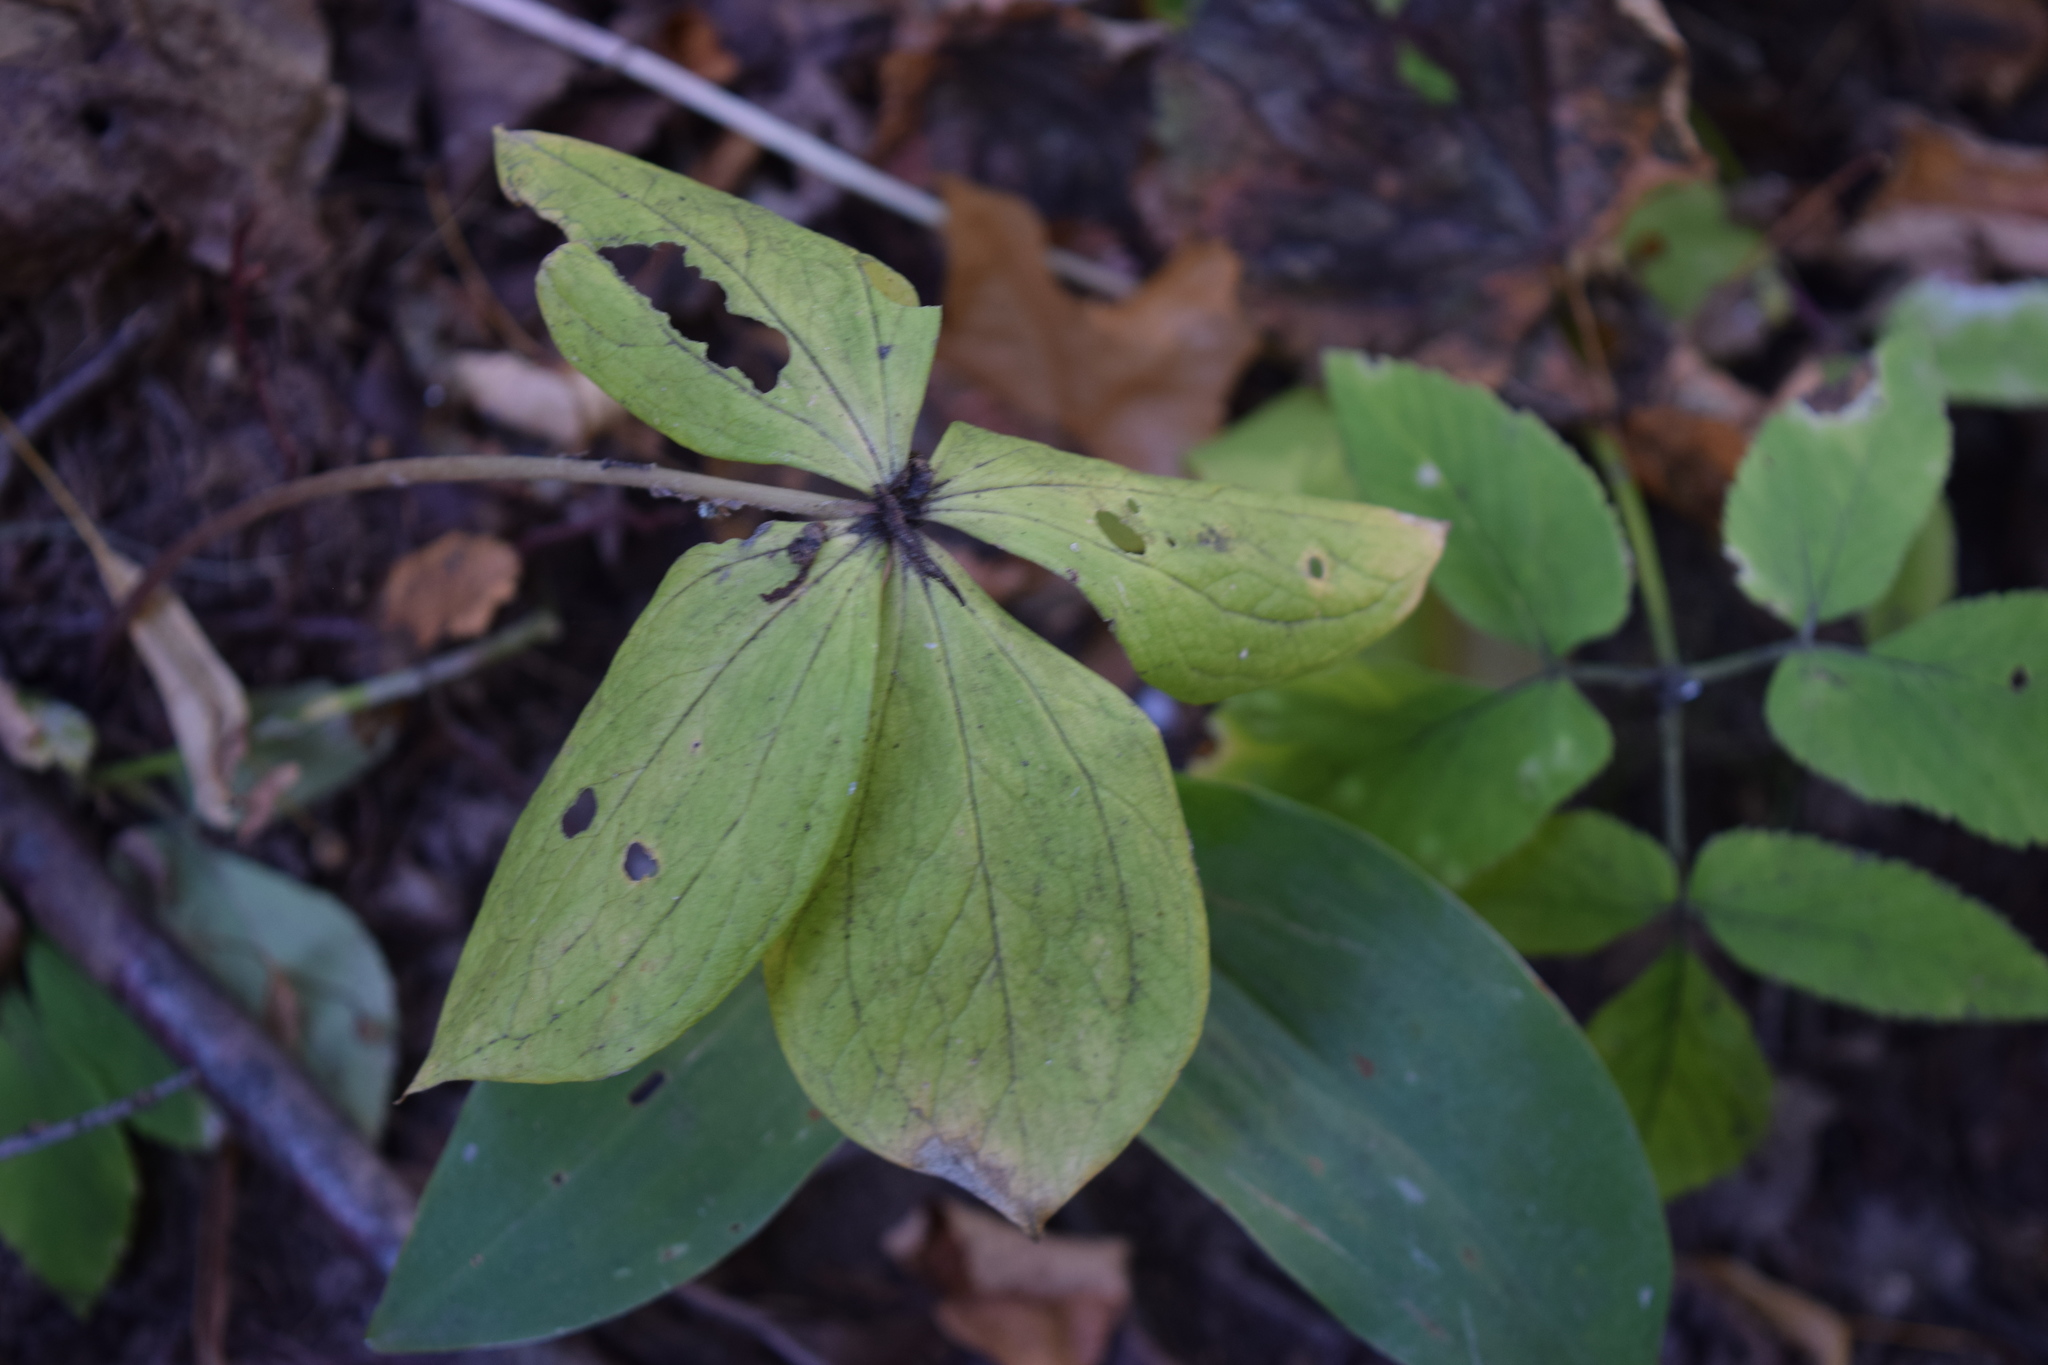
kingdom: Plantae
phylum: Tracheophyta
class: Liliopsida
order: Liliales
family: Melanthiaceae
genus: Paris
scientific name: Paris quadrifolia
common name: Herb-paris
